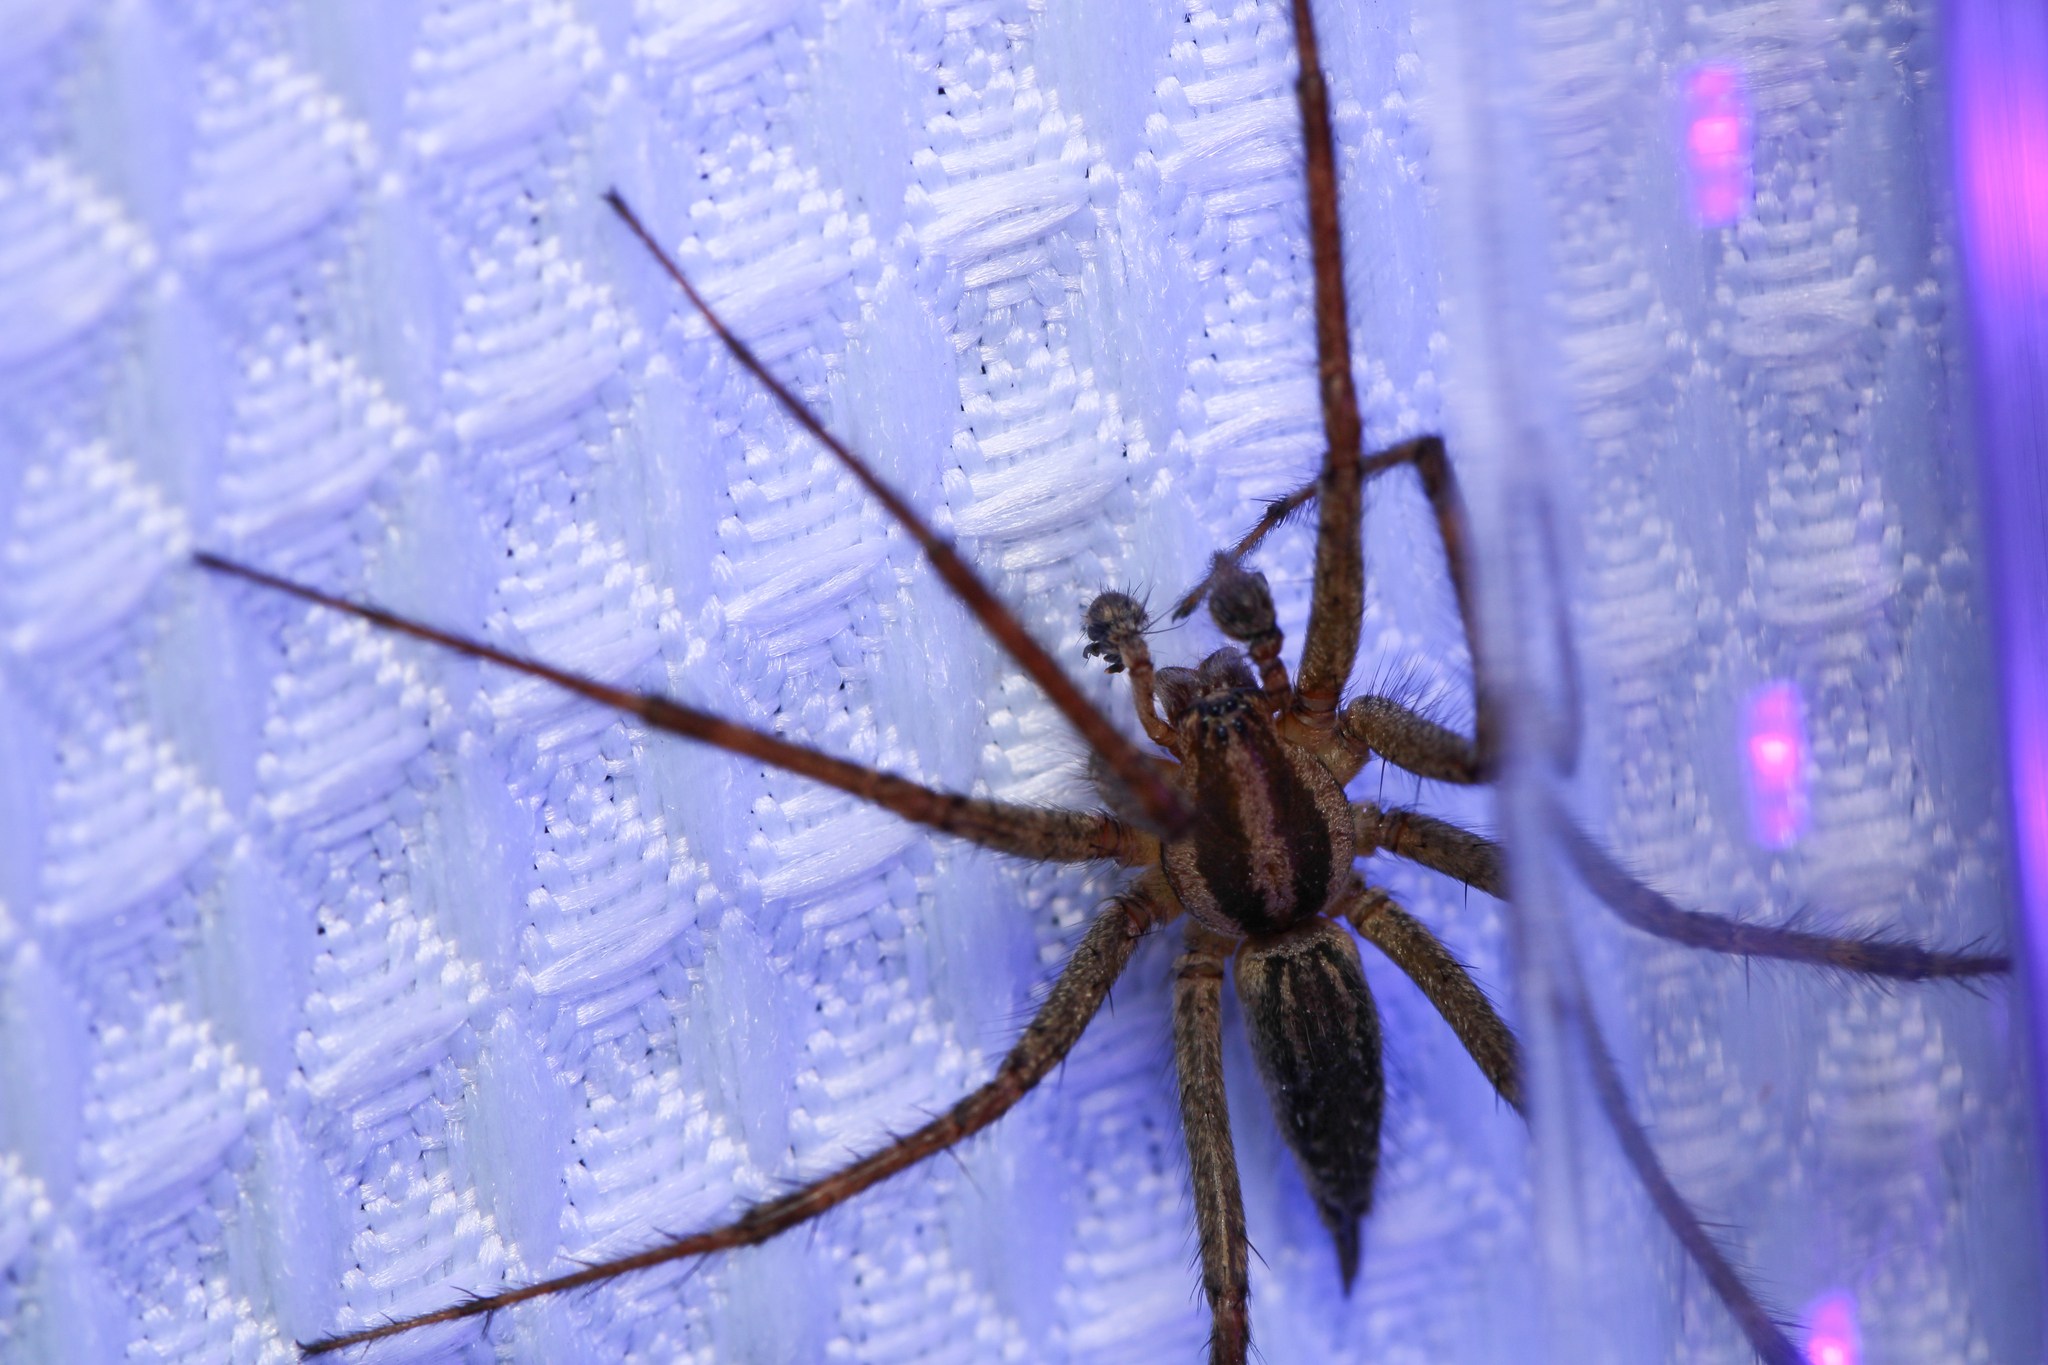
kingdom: Animalia
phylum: Arthropoda
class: Arachnida
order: Araneae
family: Agelenidae
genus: Agelenopsis
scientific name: Agelenopsis
